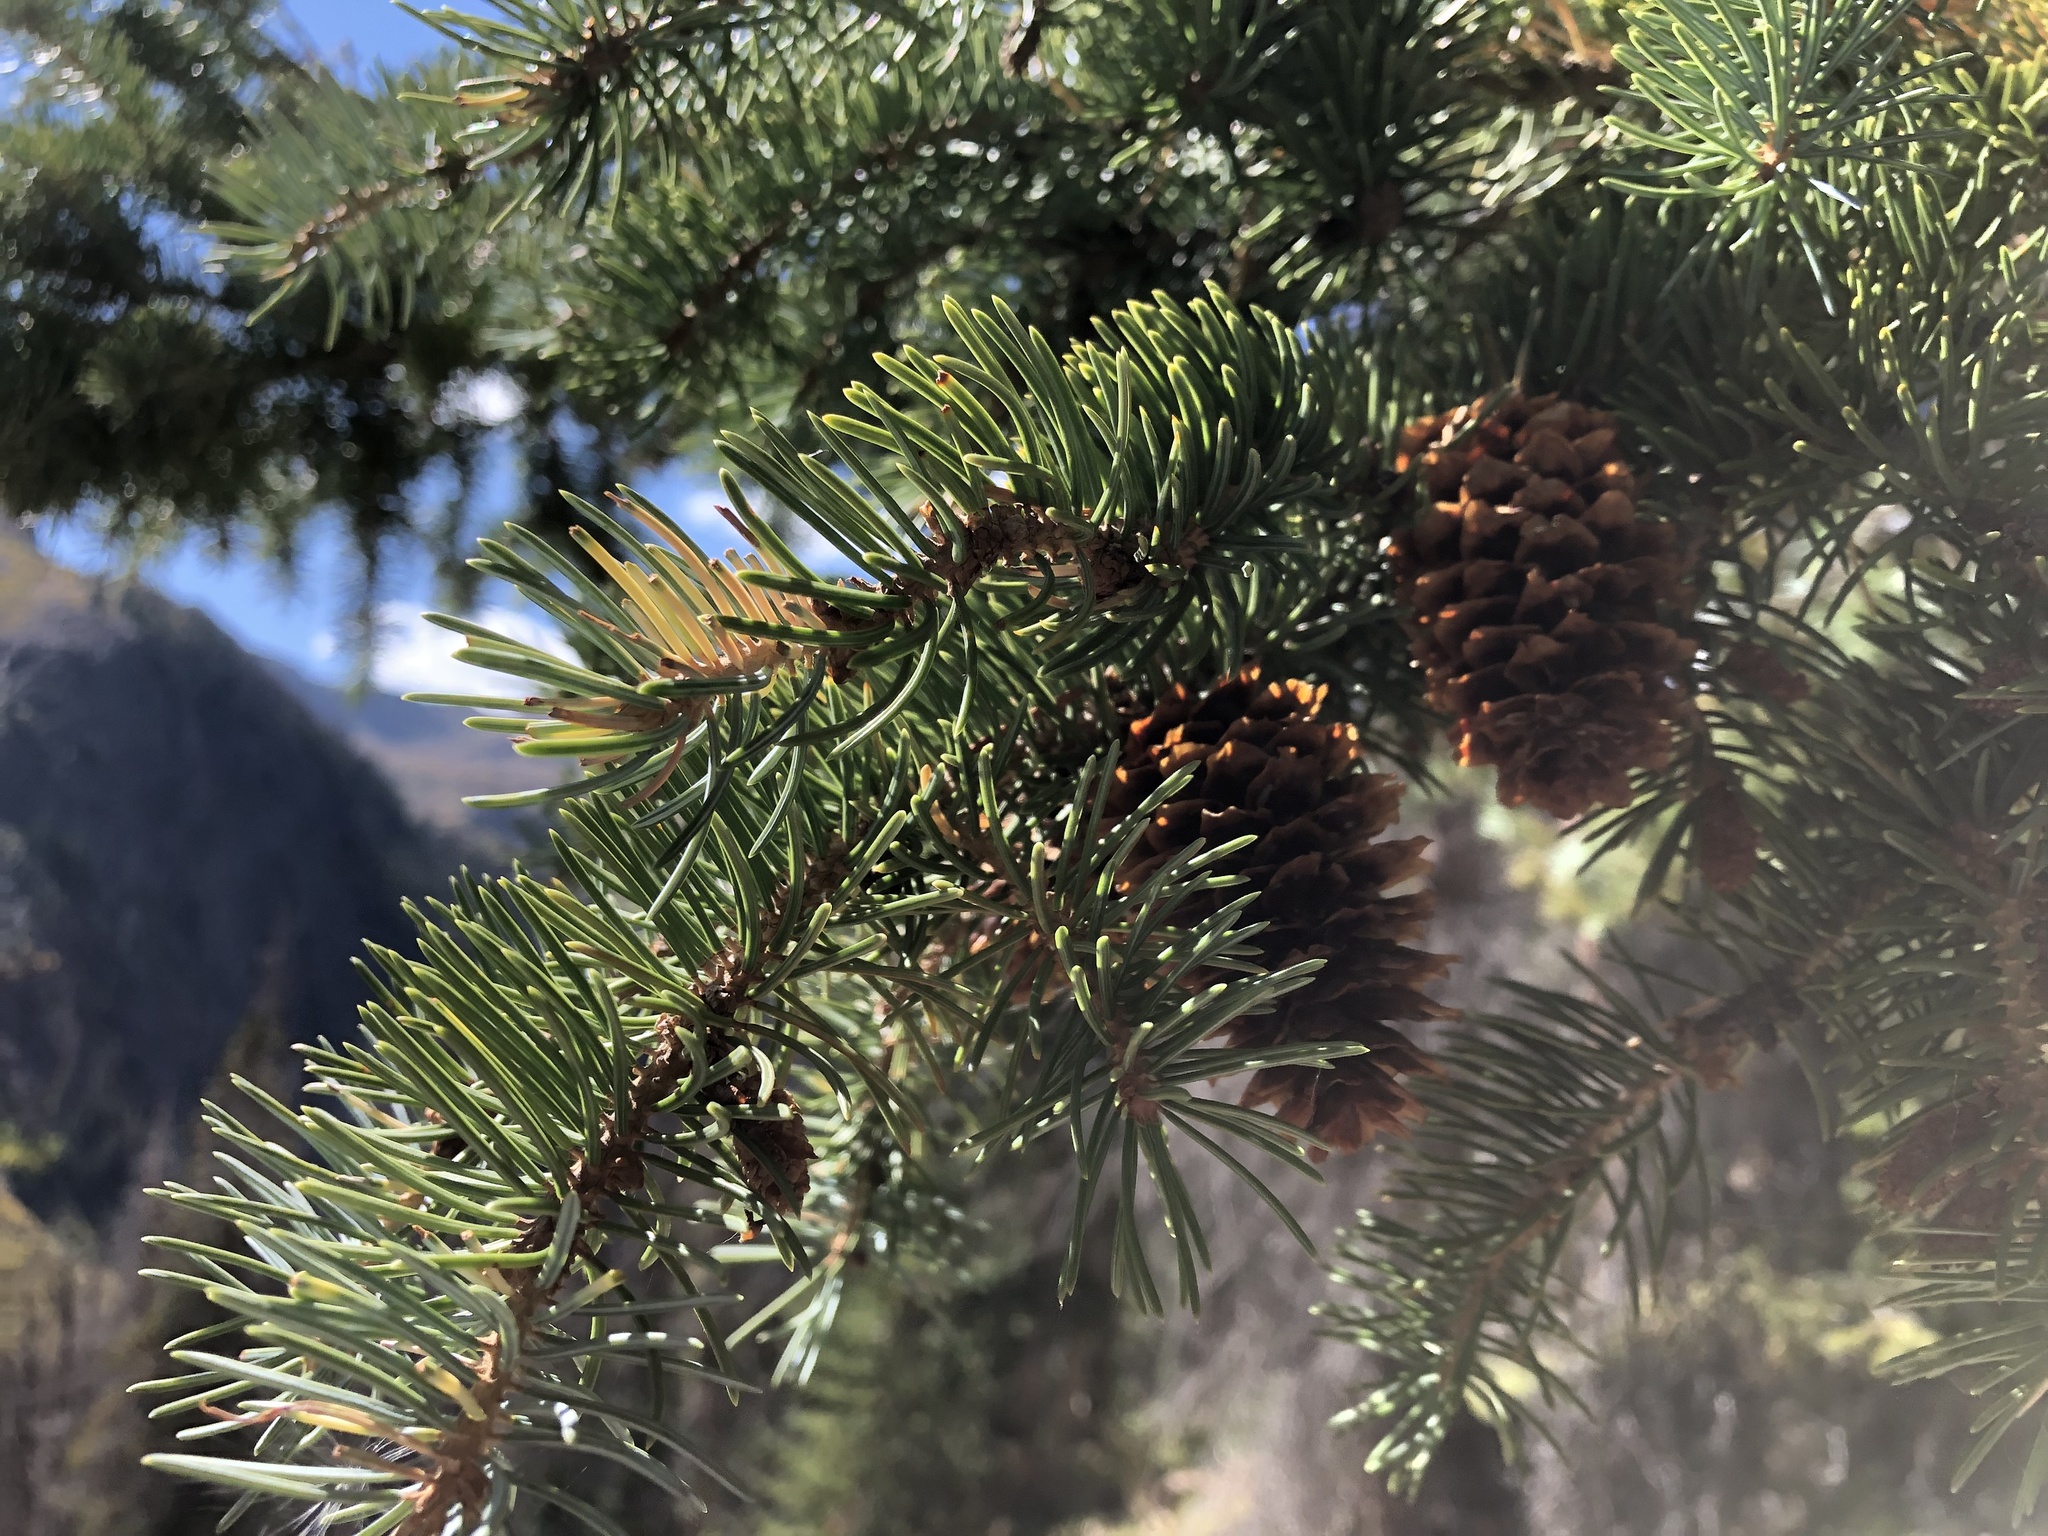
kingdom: Plantae
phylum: Tracheophyta
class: Pinopsida
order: Pinales
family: Pinaceae
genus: Picea
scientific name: Picea engelmannii
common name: Engelmann spruce
